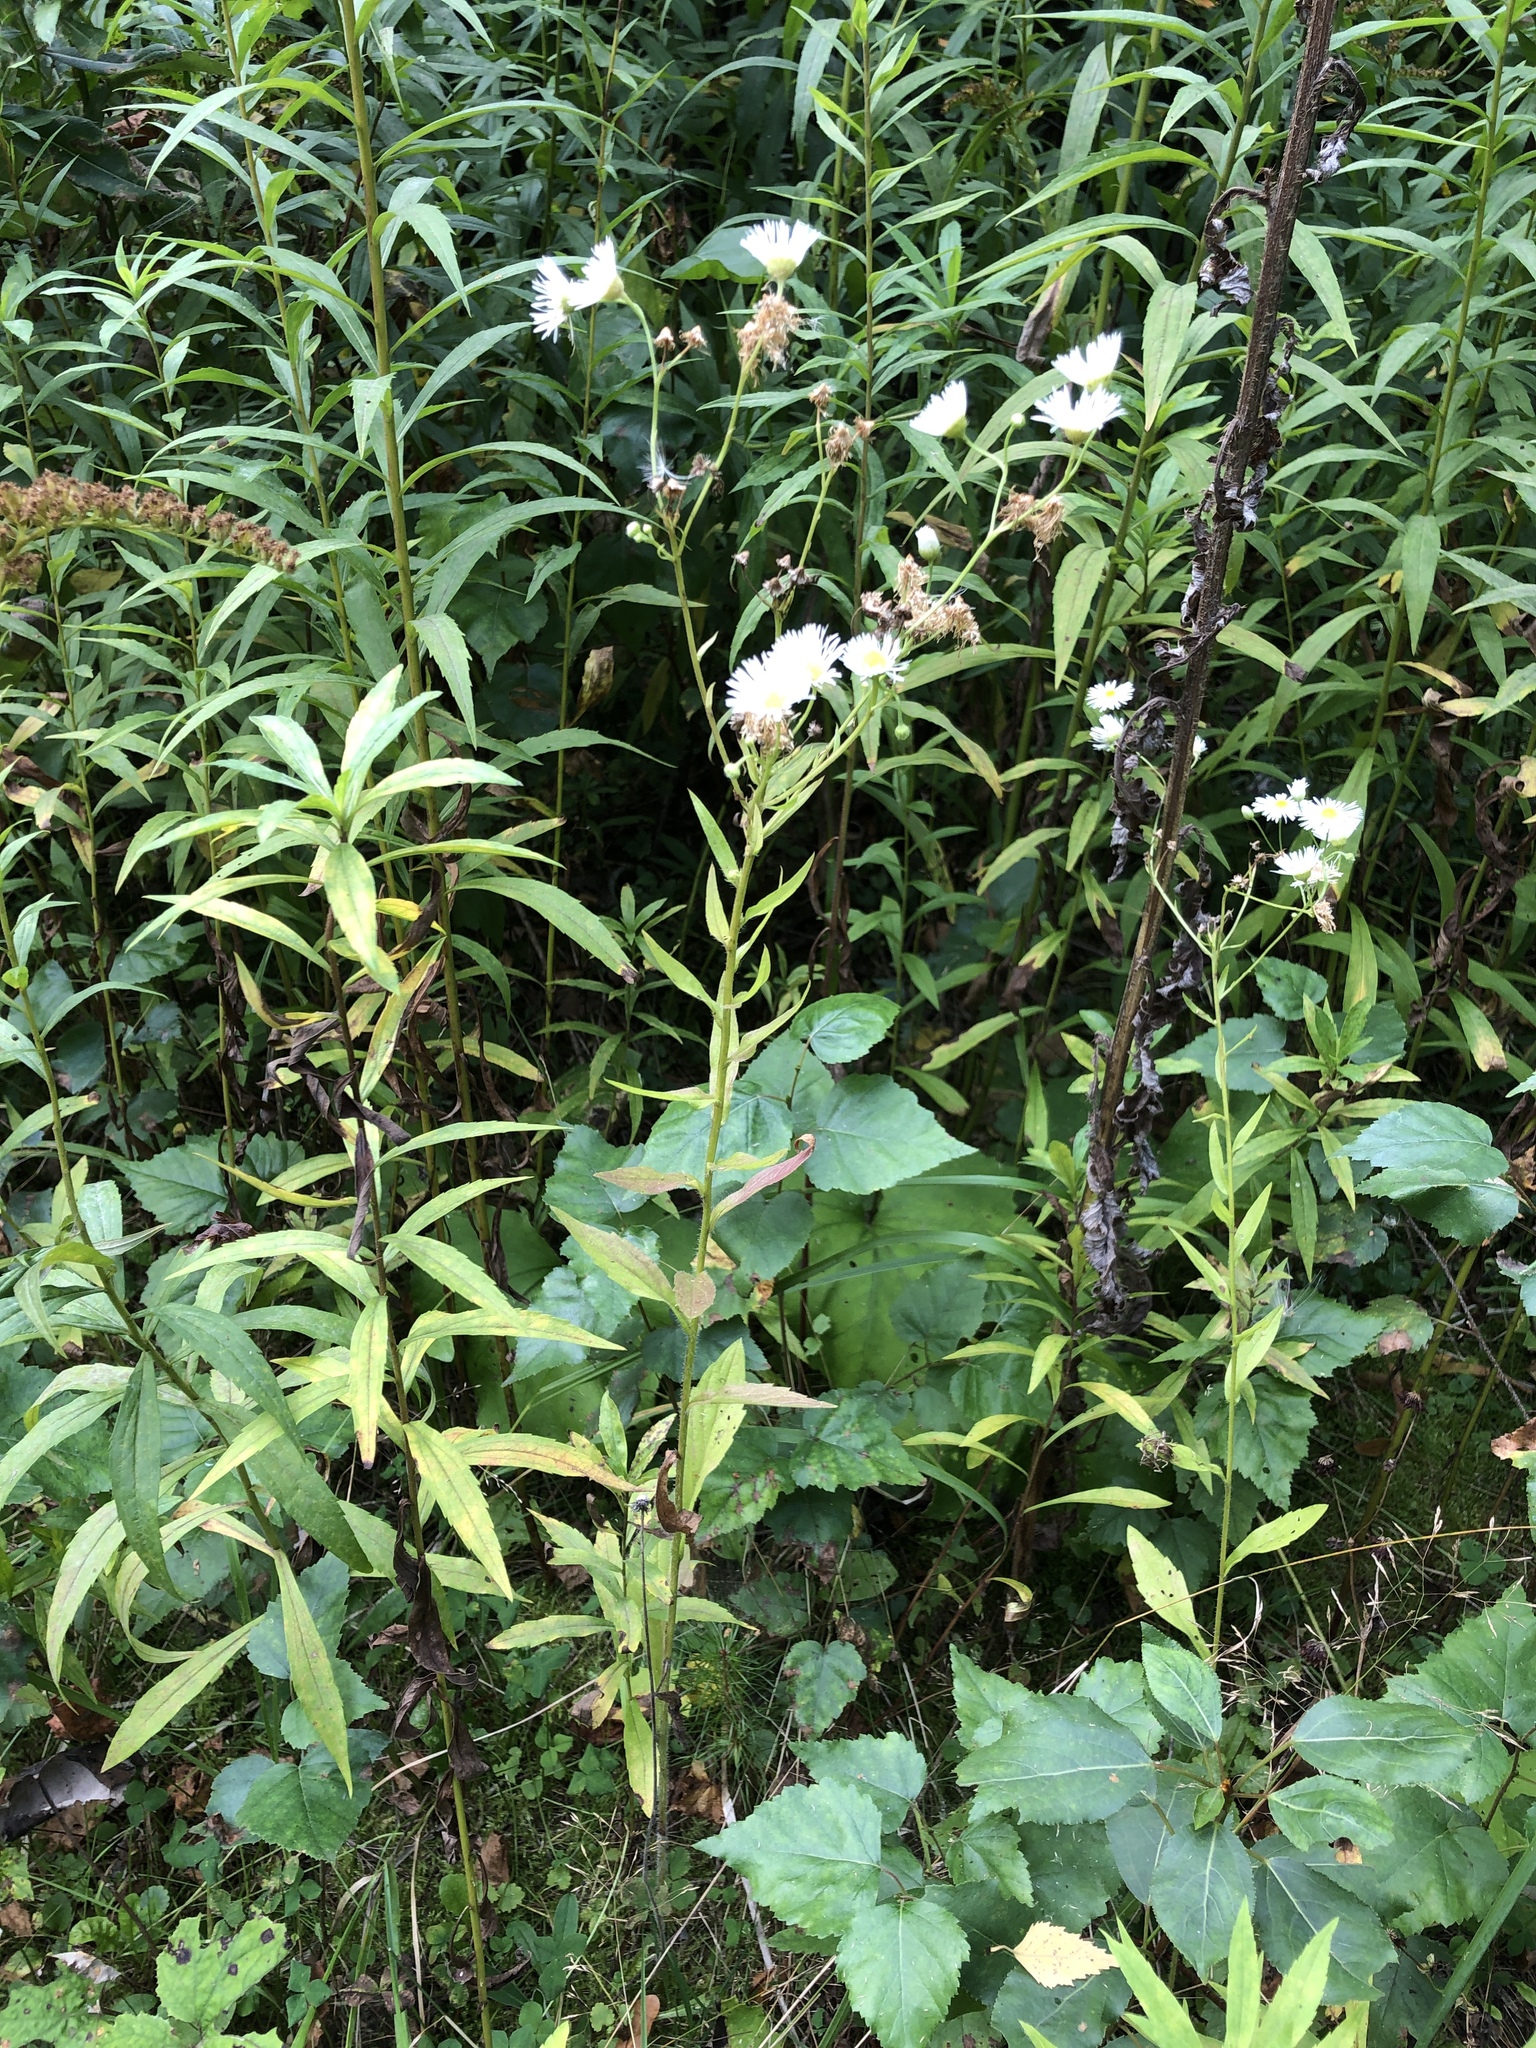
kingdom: Plantae
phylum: Tracheophyta
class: Magnoliopsida
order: Asterales
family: Asteraceae
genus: Erigeron
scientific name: Erigeron annuus
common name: Tall fleabane
